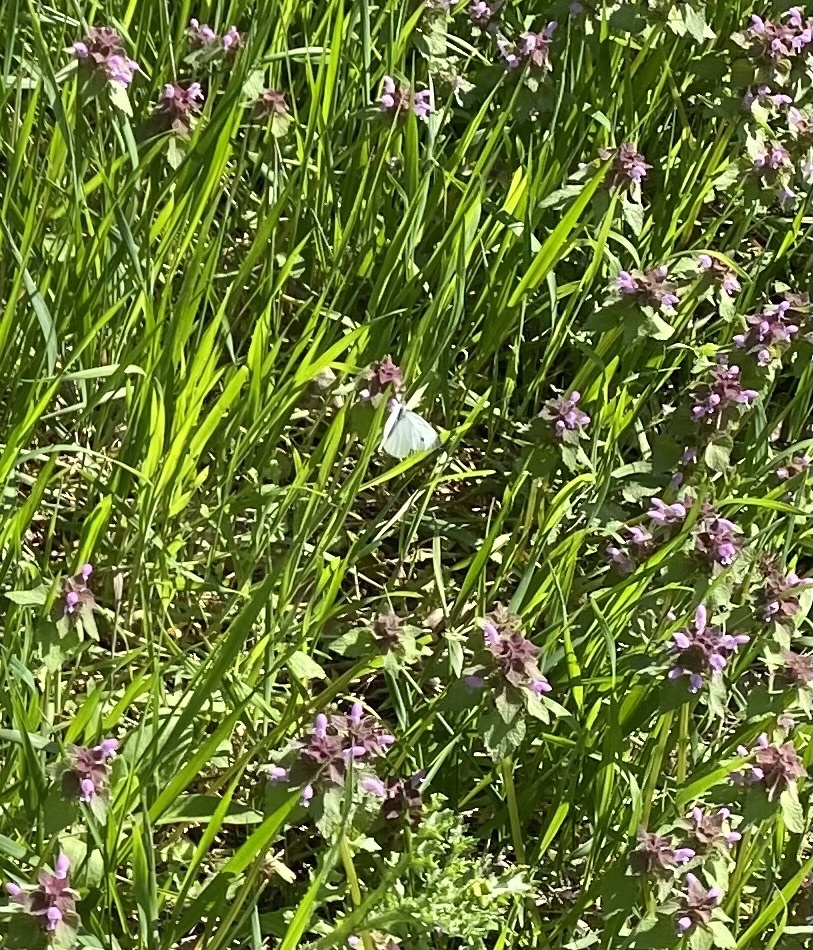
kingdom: Animalia
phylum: Arthropoda
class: Insecta
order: Lepidoptera
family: Pieridae
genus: Pieris
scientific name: Pieris napi
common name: Green-veined white
